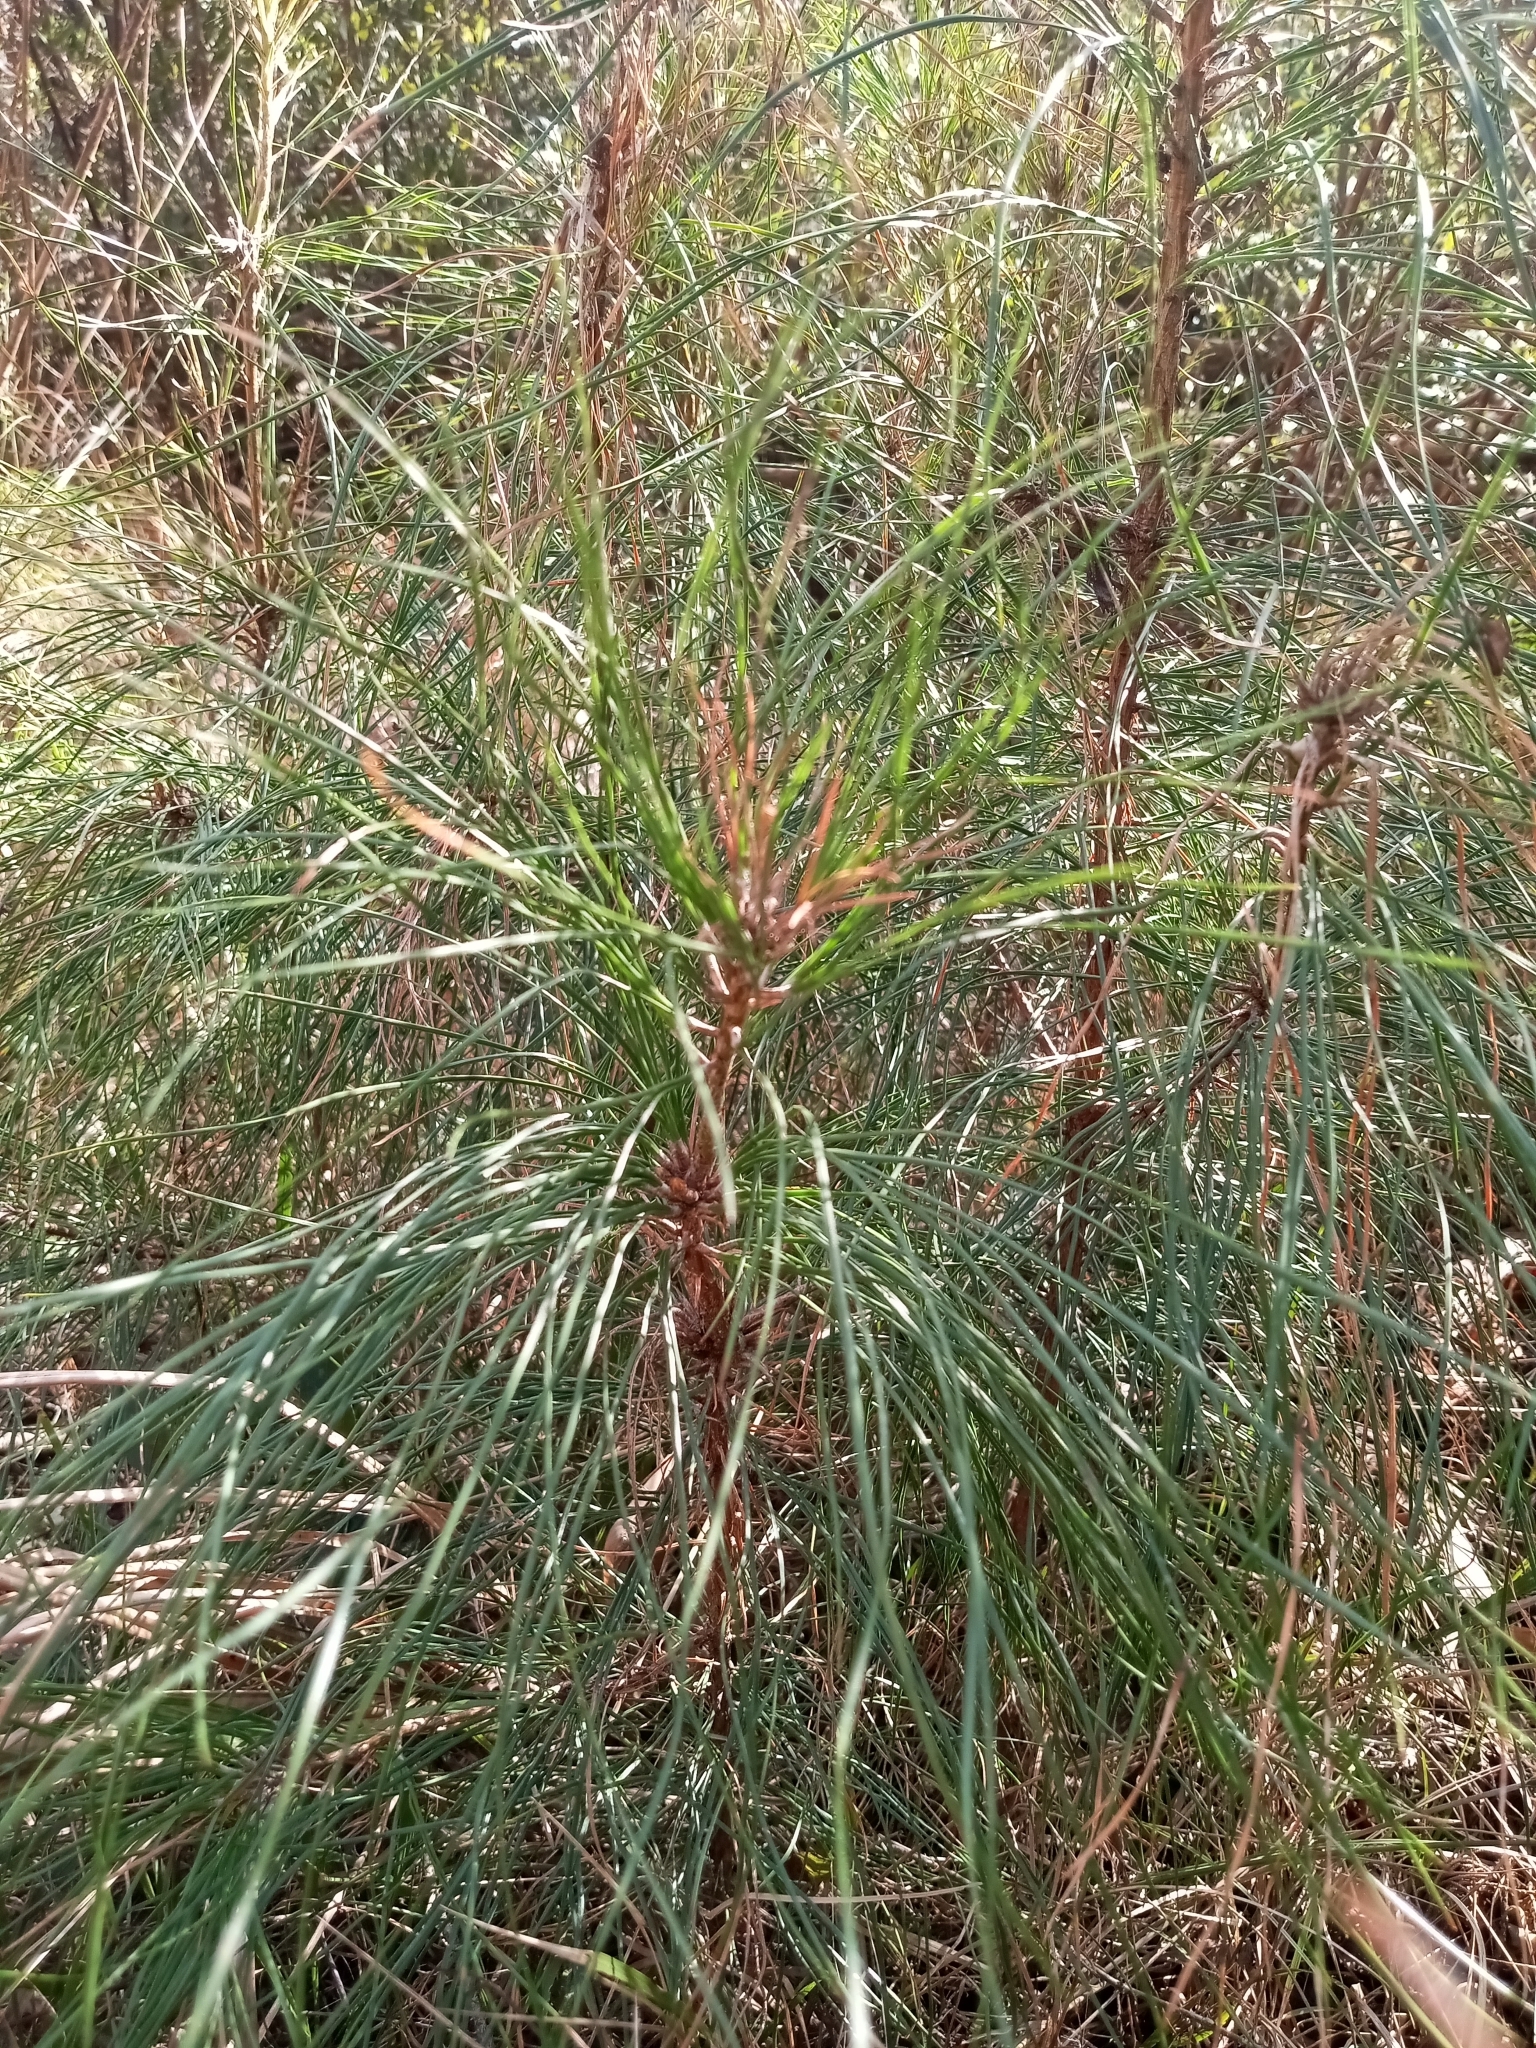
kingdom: Plantae
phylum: Tracheophyta
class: Pinopsida
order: Pinales
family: Pinaceae
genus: Pinus
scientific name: Pinus taeda
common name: Loblolly pine
